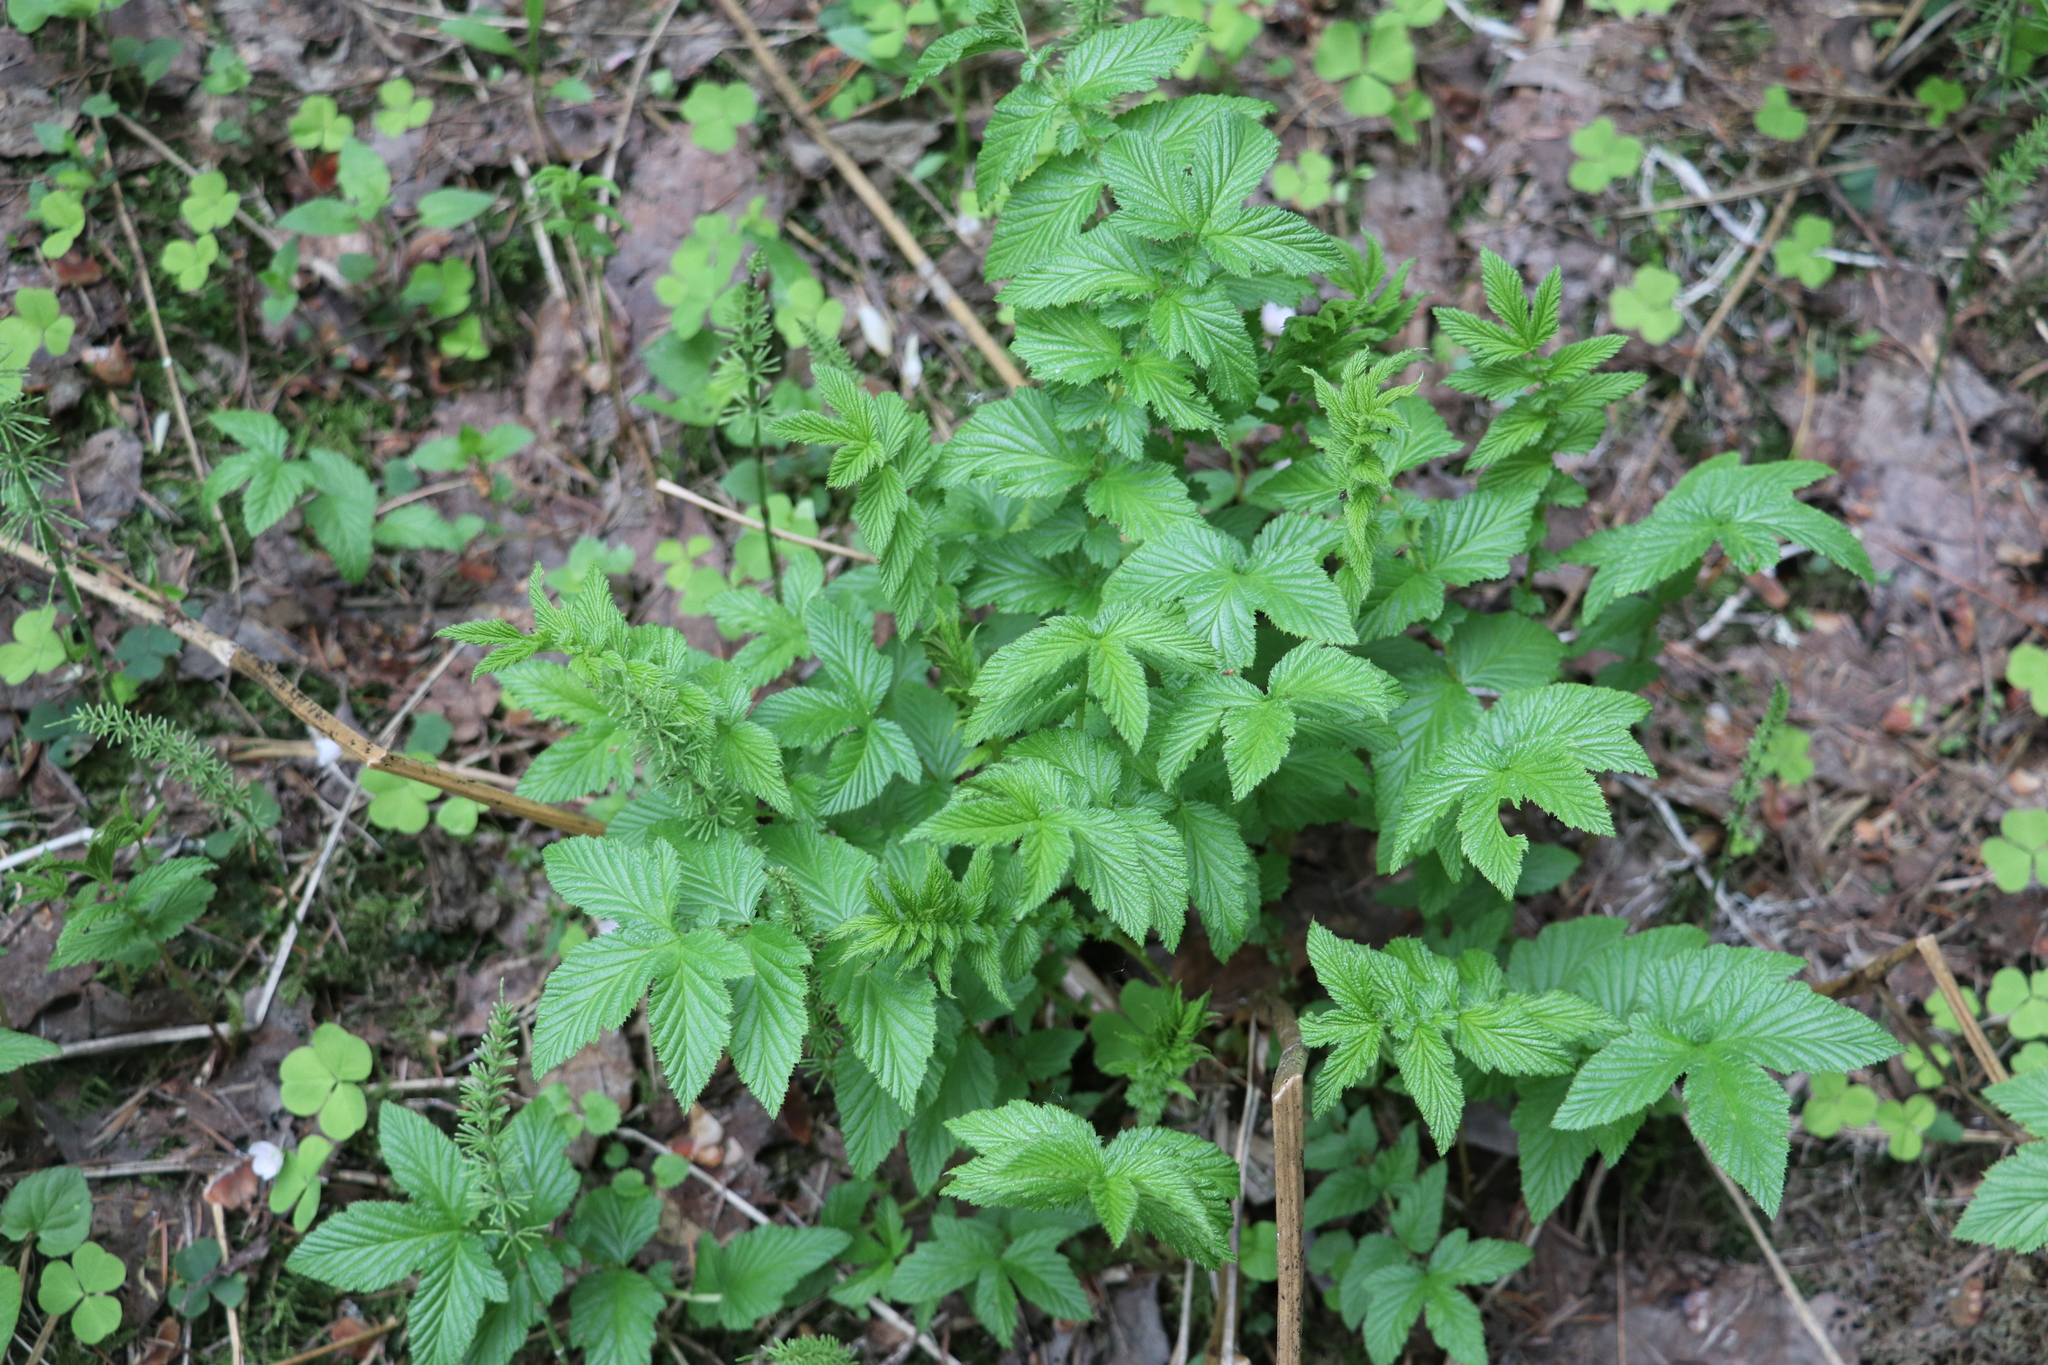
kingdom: Plantae
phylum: Tracheophyta
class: Magnoliopsida
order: Rosales
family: Rosaceae
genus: Filipendula
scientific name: Filipendula ulmaria
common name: Meadowsweet
